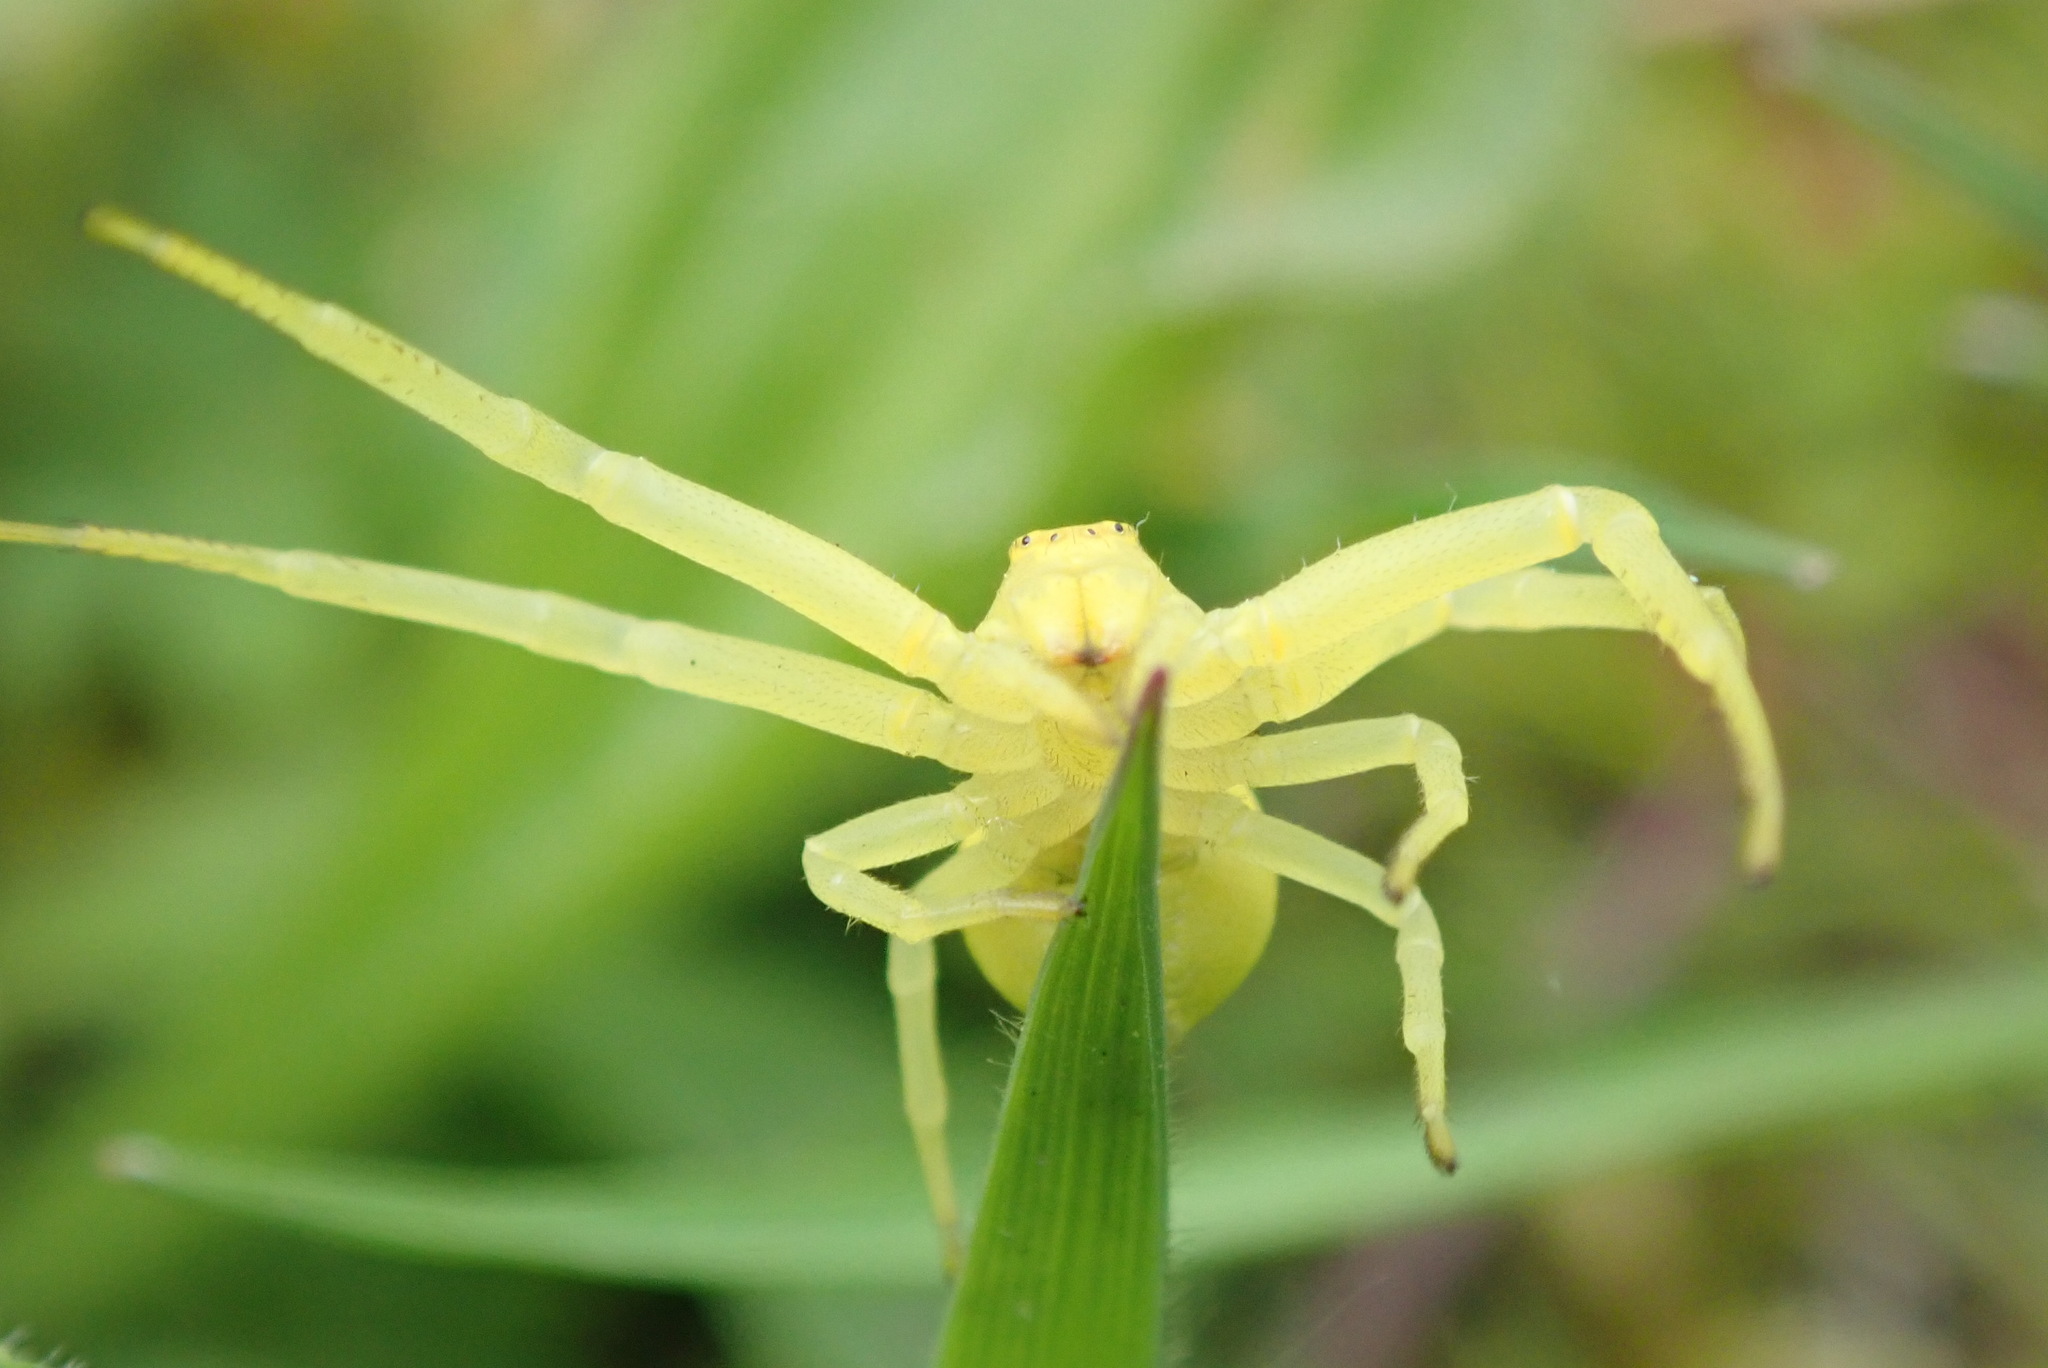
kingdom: Animalia
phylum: Arthropoda
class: Arachnida
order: Araneae
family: Thomisidae
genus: Misumena
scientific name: Misumena vatia
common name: Goldenrod crab spider
